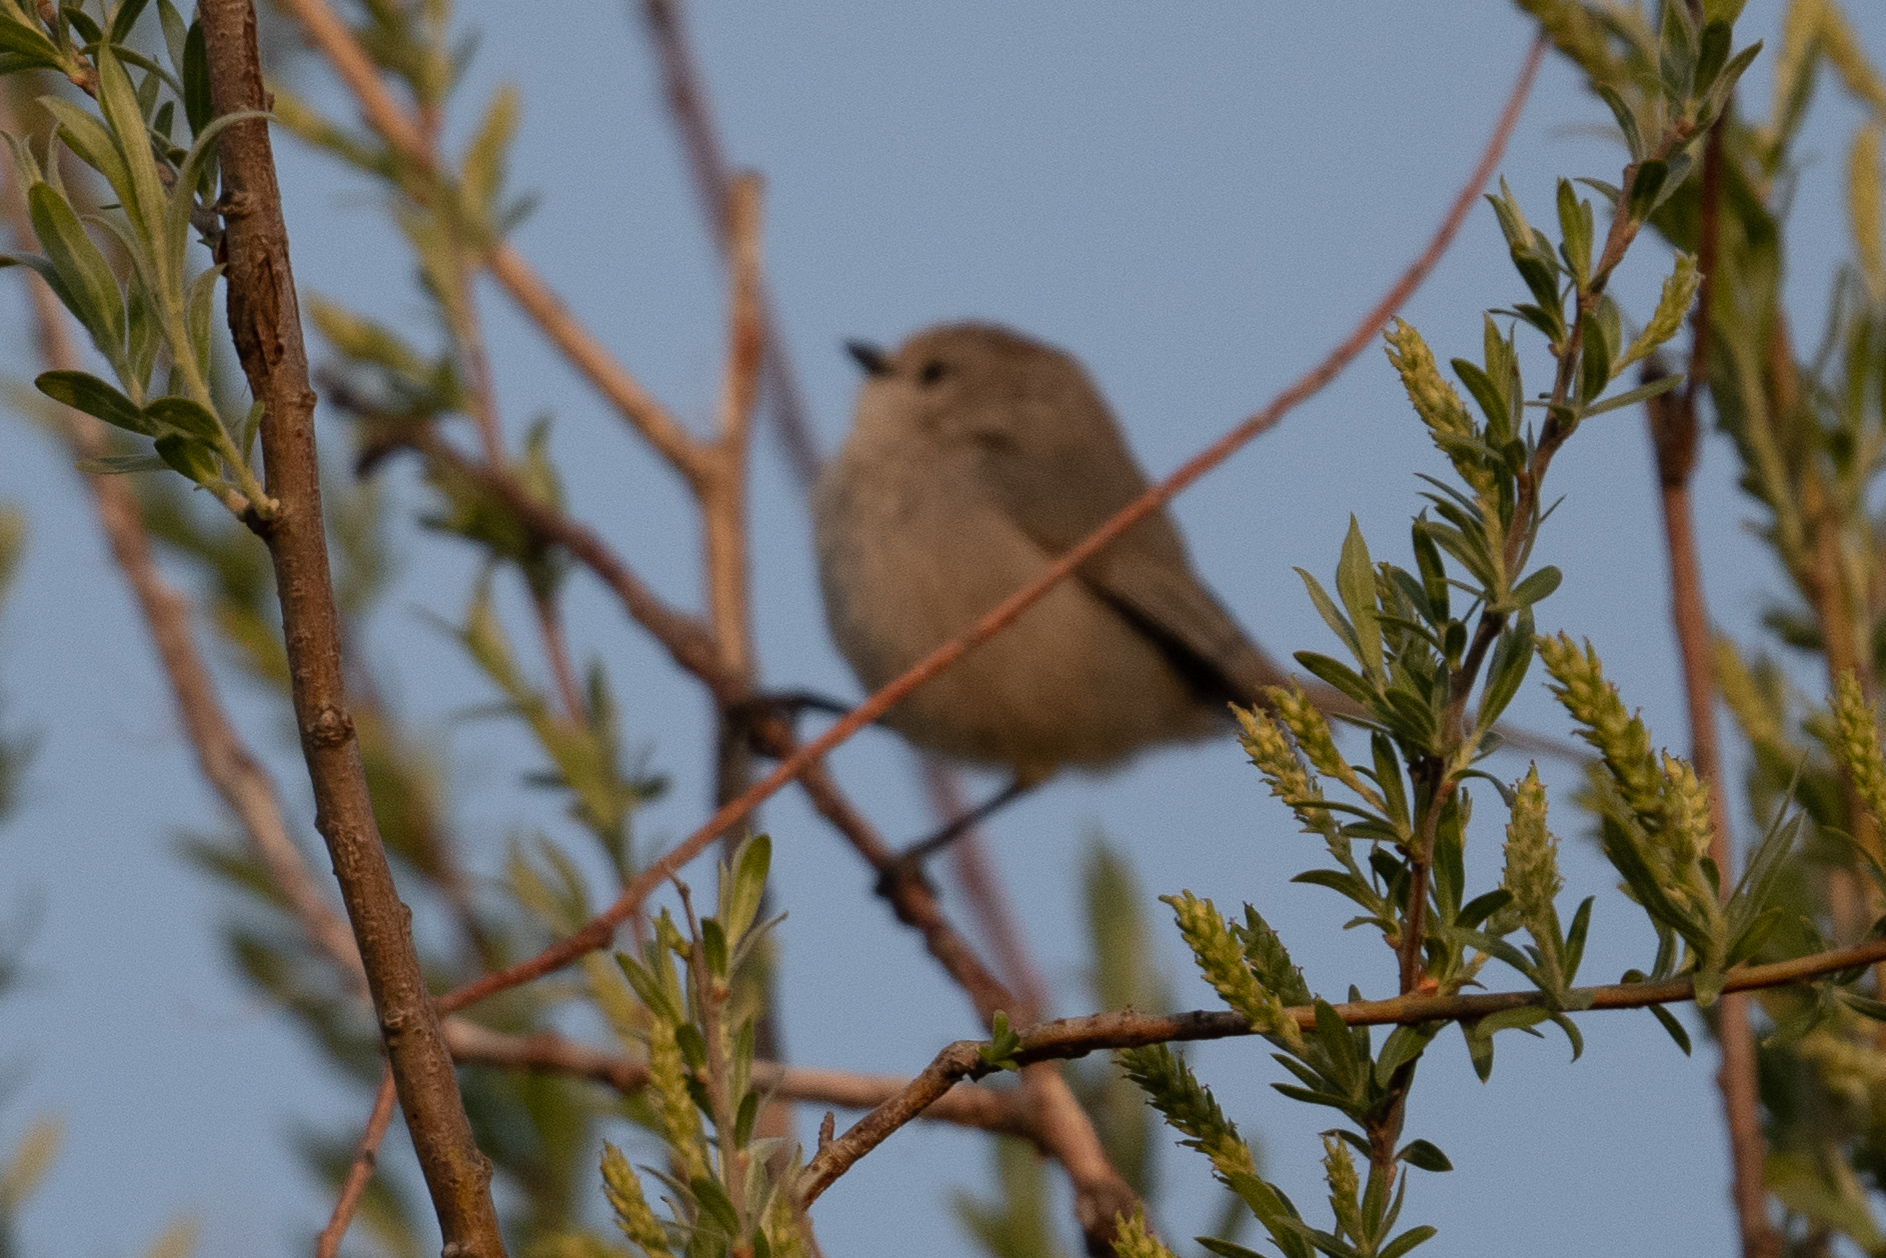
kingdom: Animalia
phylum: Chordata
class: Aves
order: Passeriformes
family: Aegithalidae
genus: Psaltriparus
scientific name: Psaltriparus minimus
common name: American bushtit
